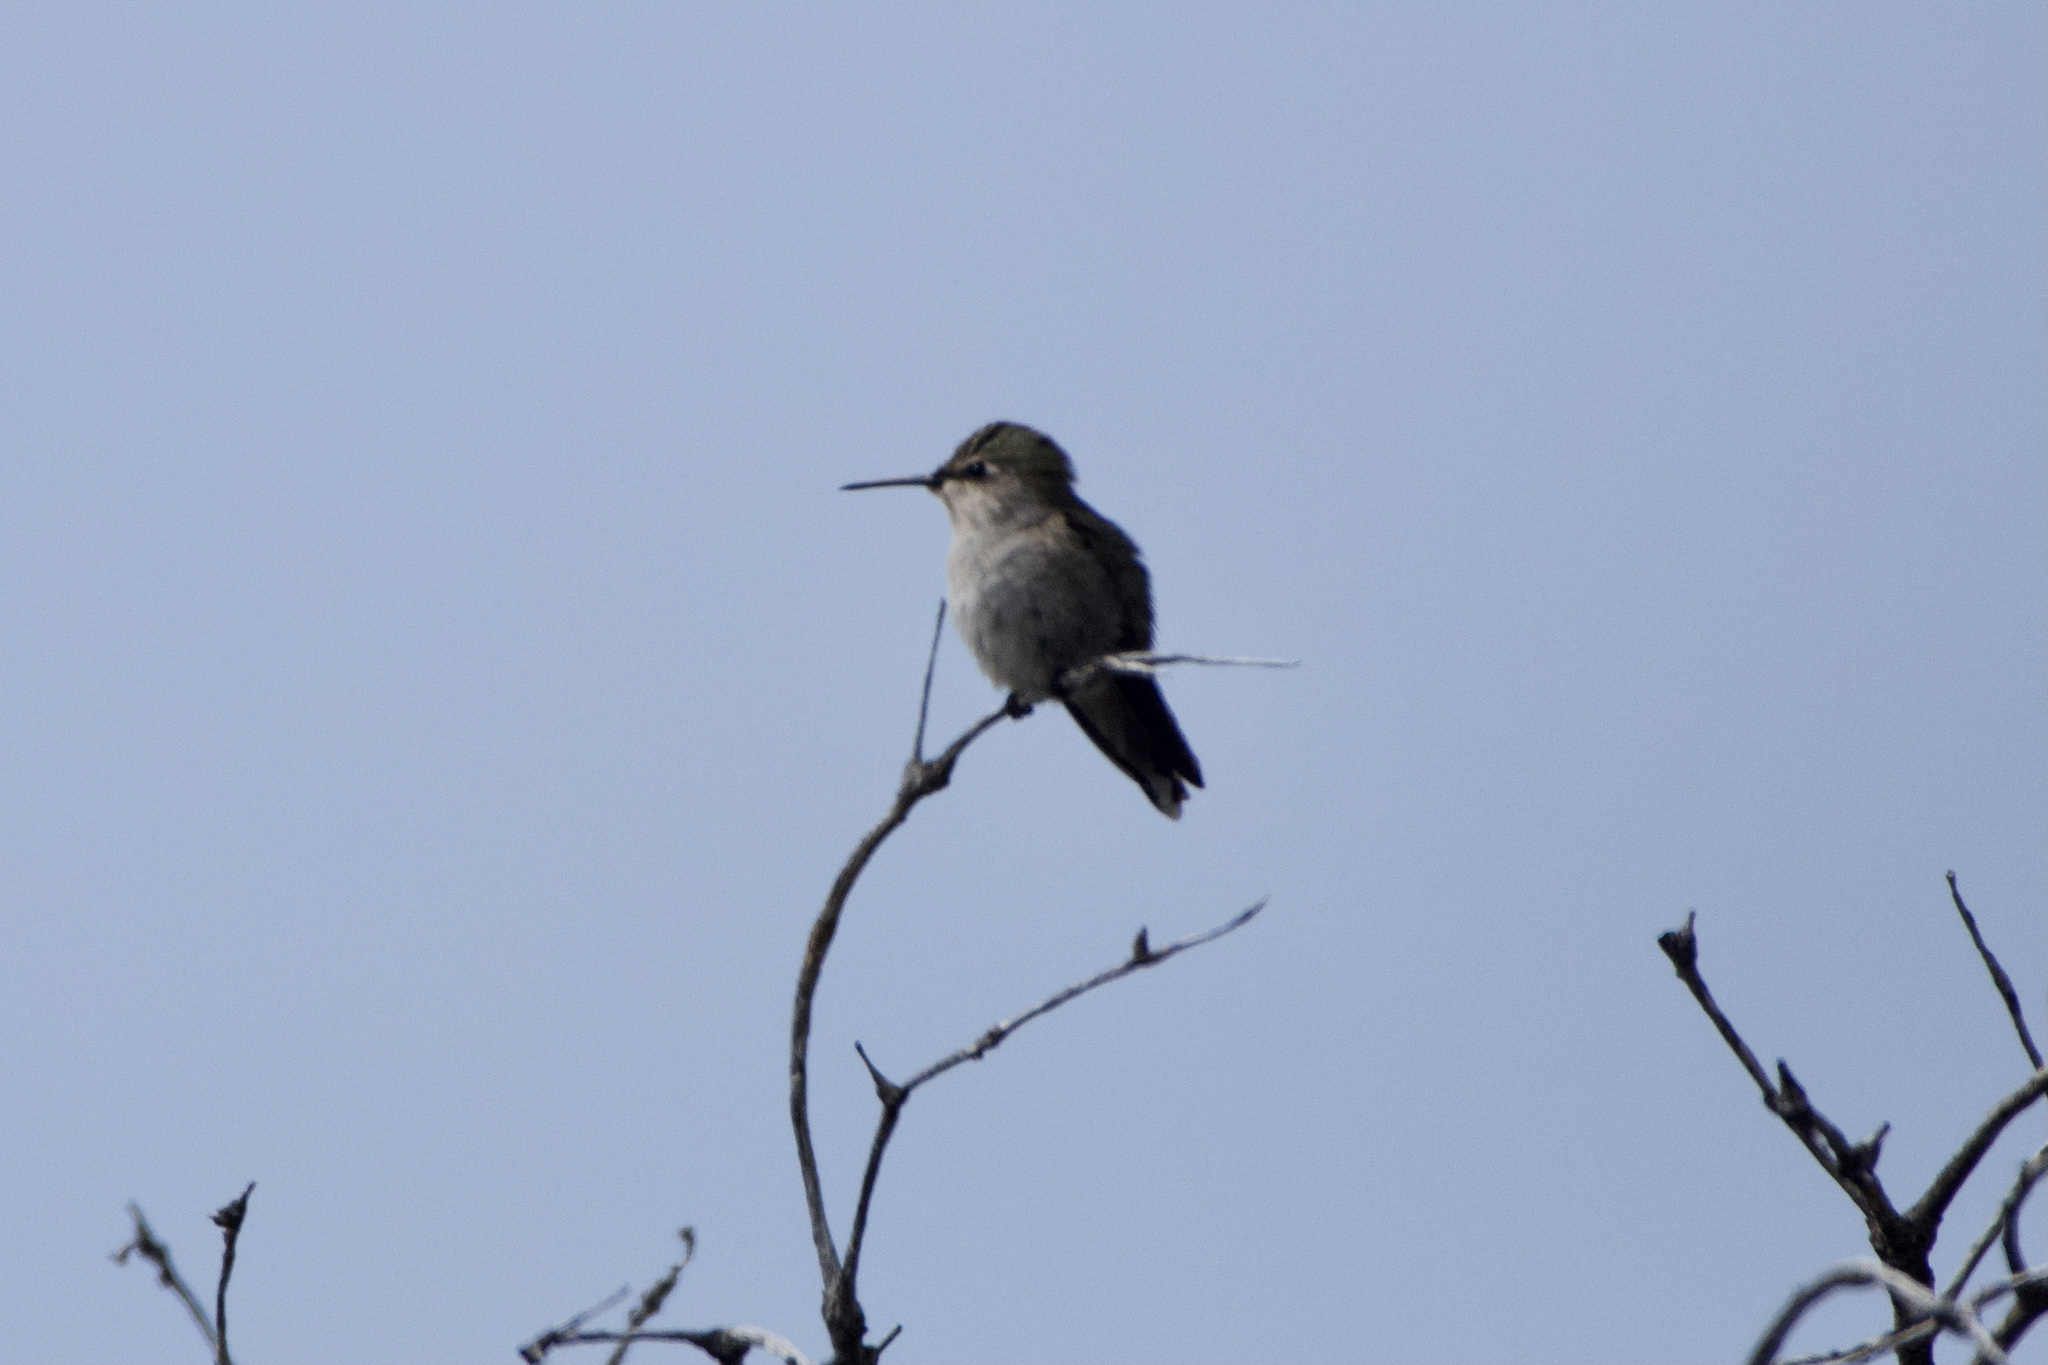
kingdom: Animalia
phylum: Chordata
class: Aves
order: Apodiformes
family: Trochilidae
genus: Calypte
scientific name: Calypte anna
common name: Anna's hummingbird
